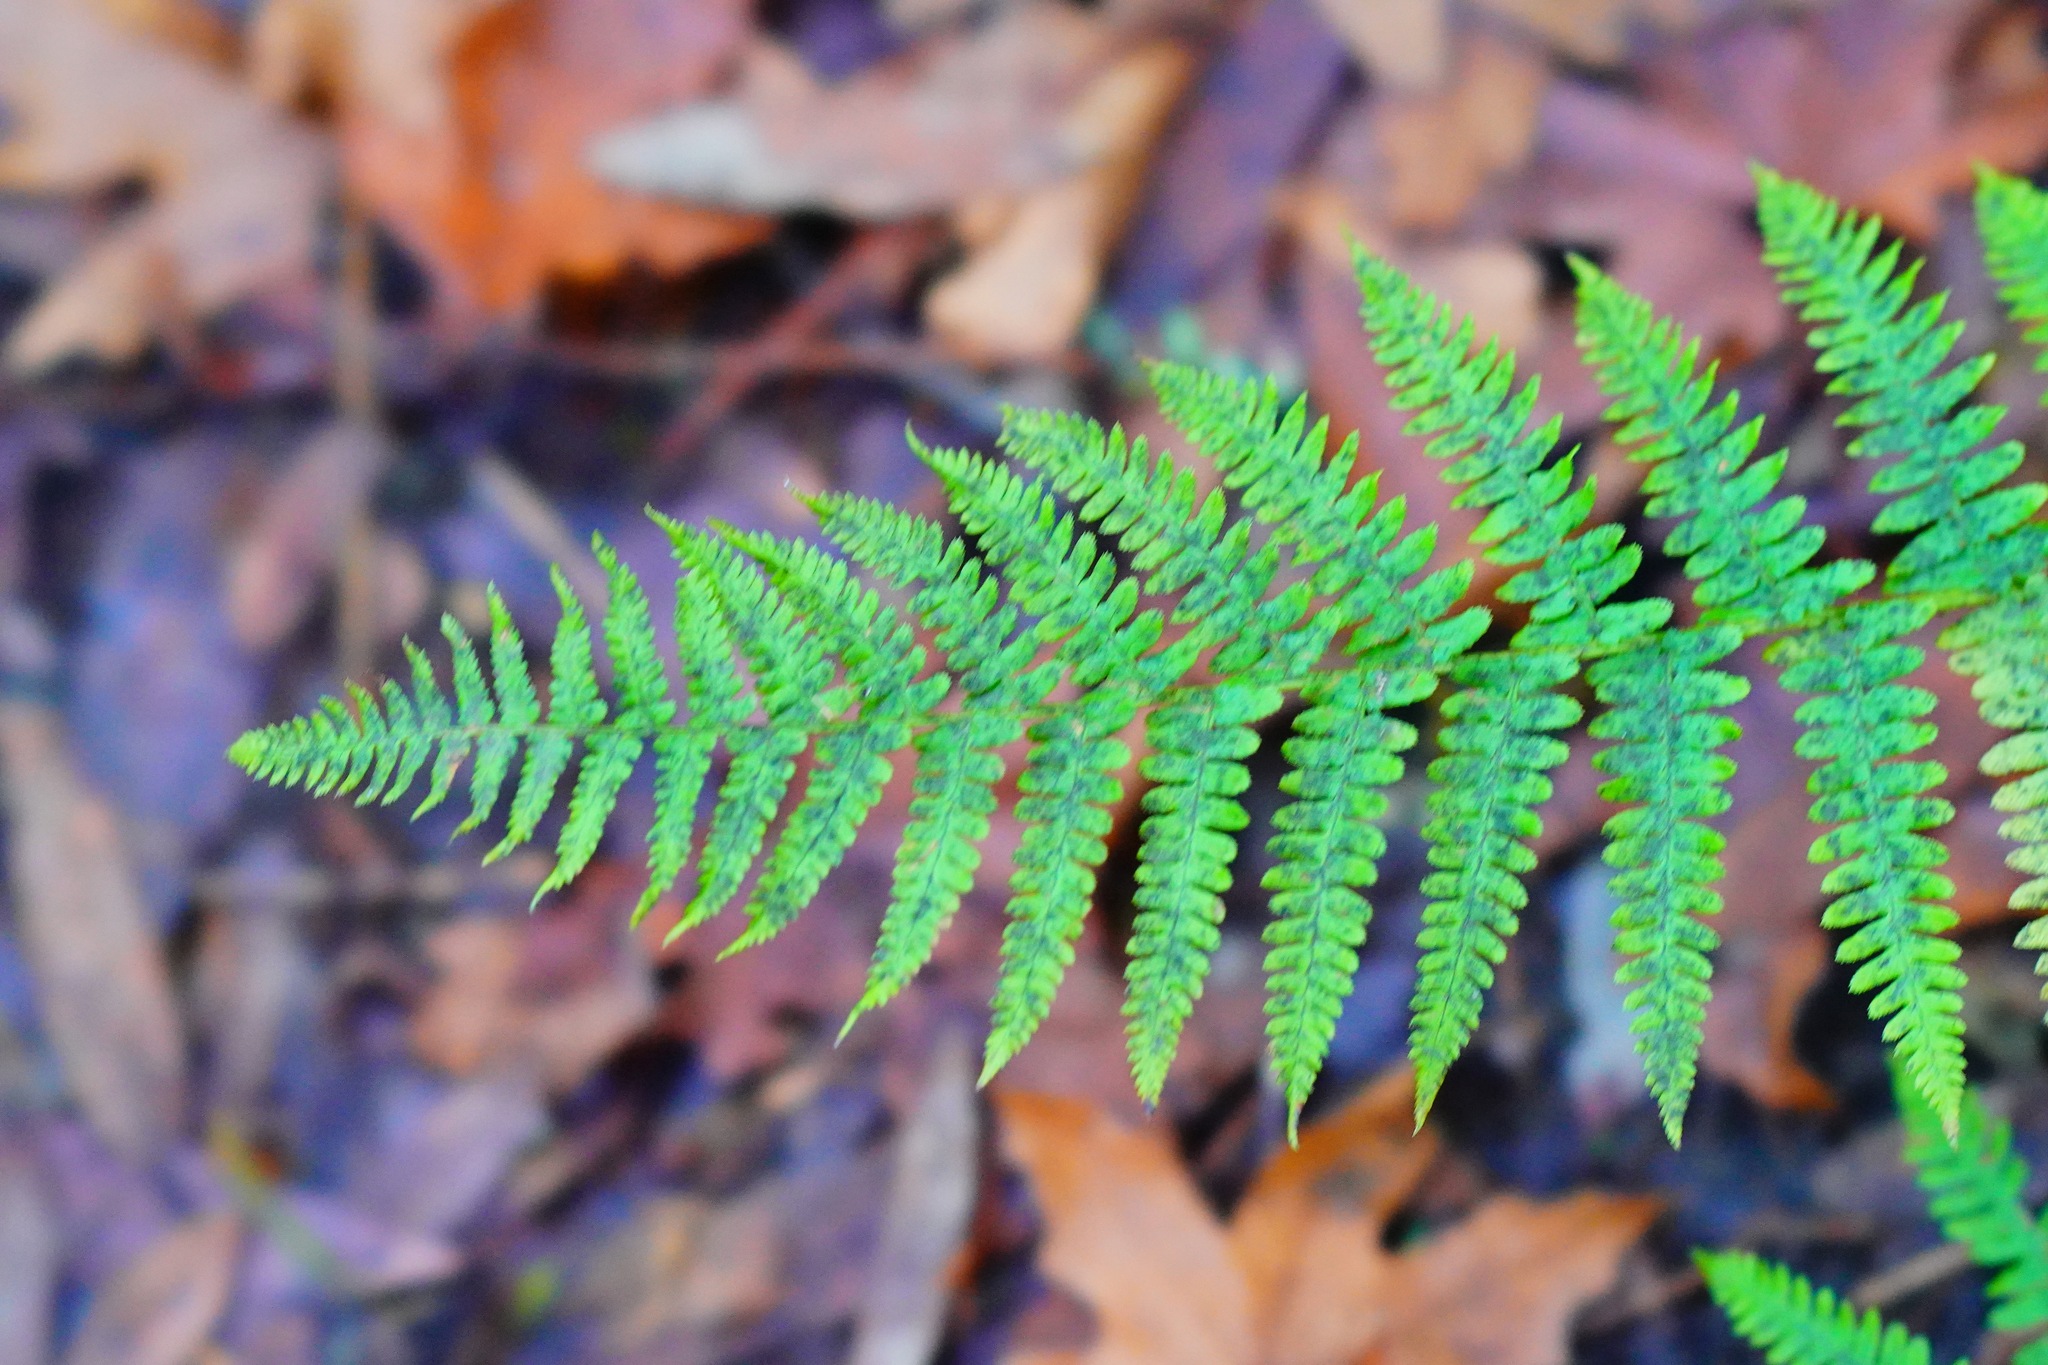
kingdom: Plantae
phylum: Tracheophyta
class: Polypodiopsida
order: Polypodiales
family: Dryopteridaceae
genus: Dryopteris
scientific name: Dryopteris arguta
